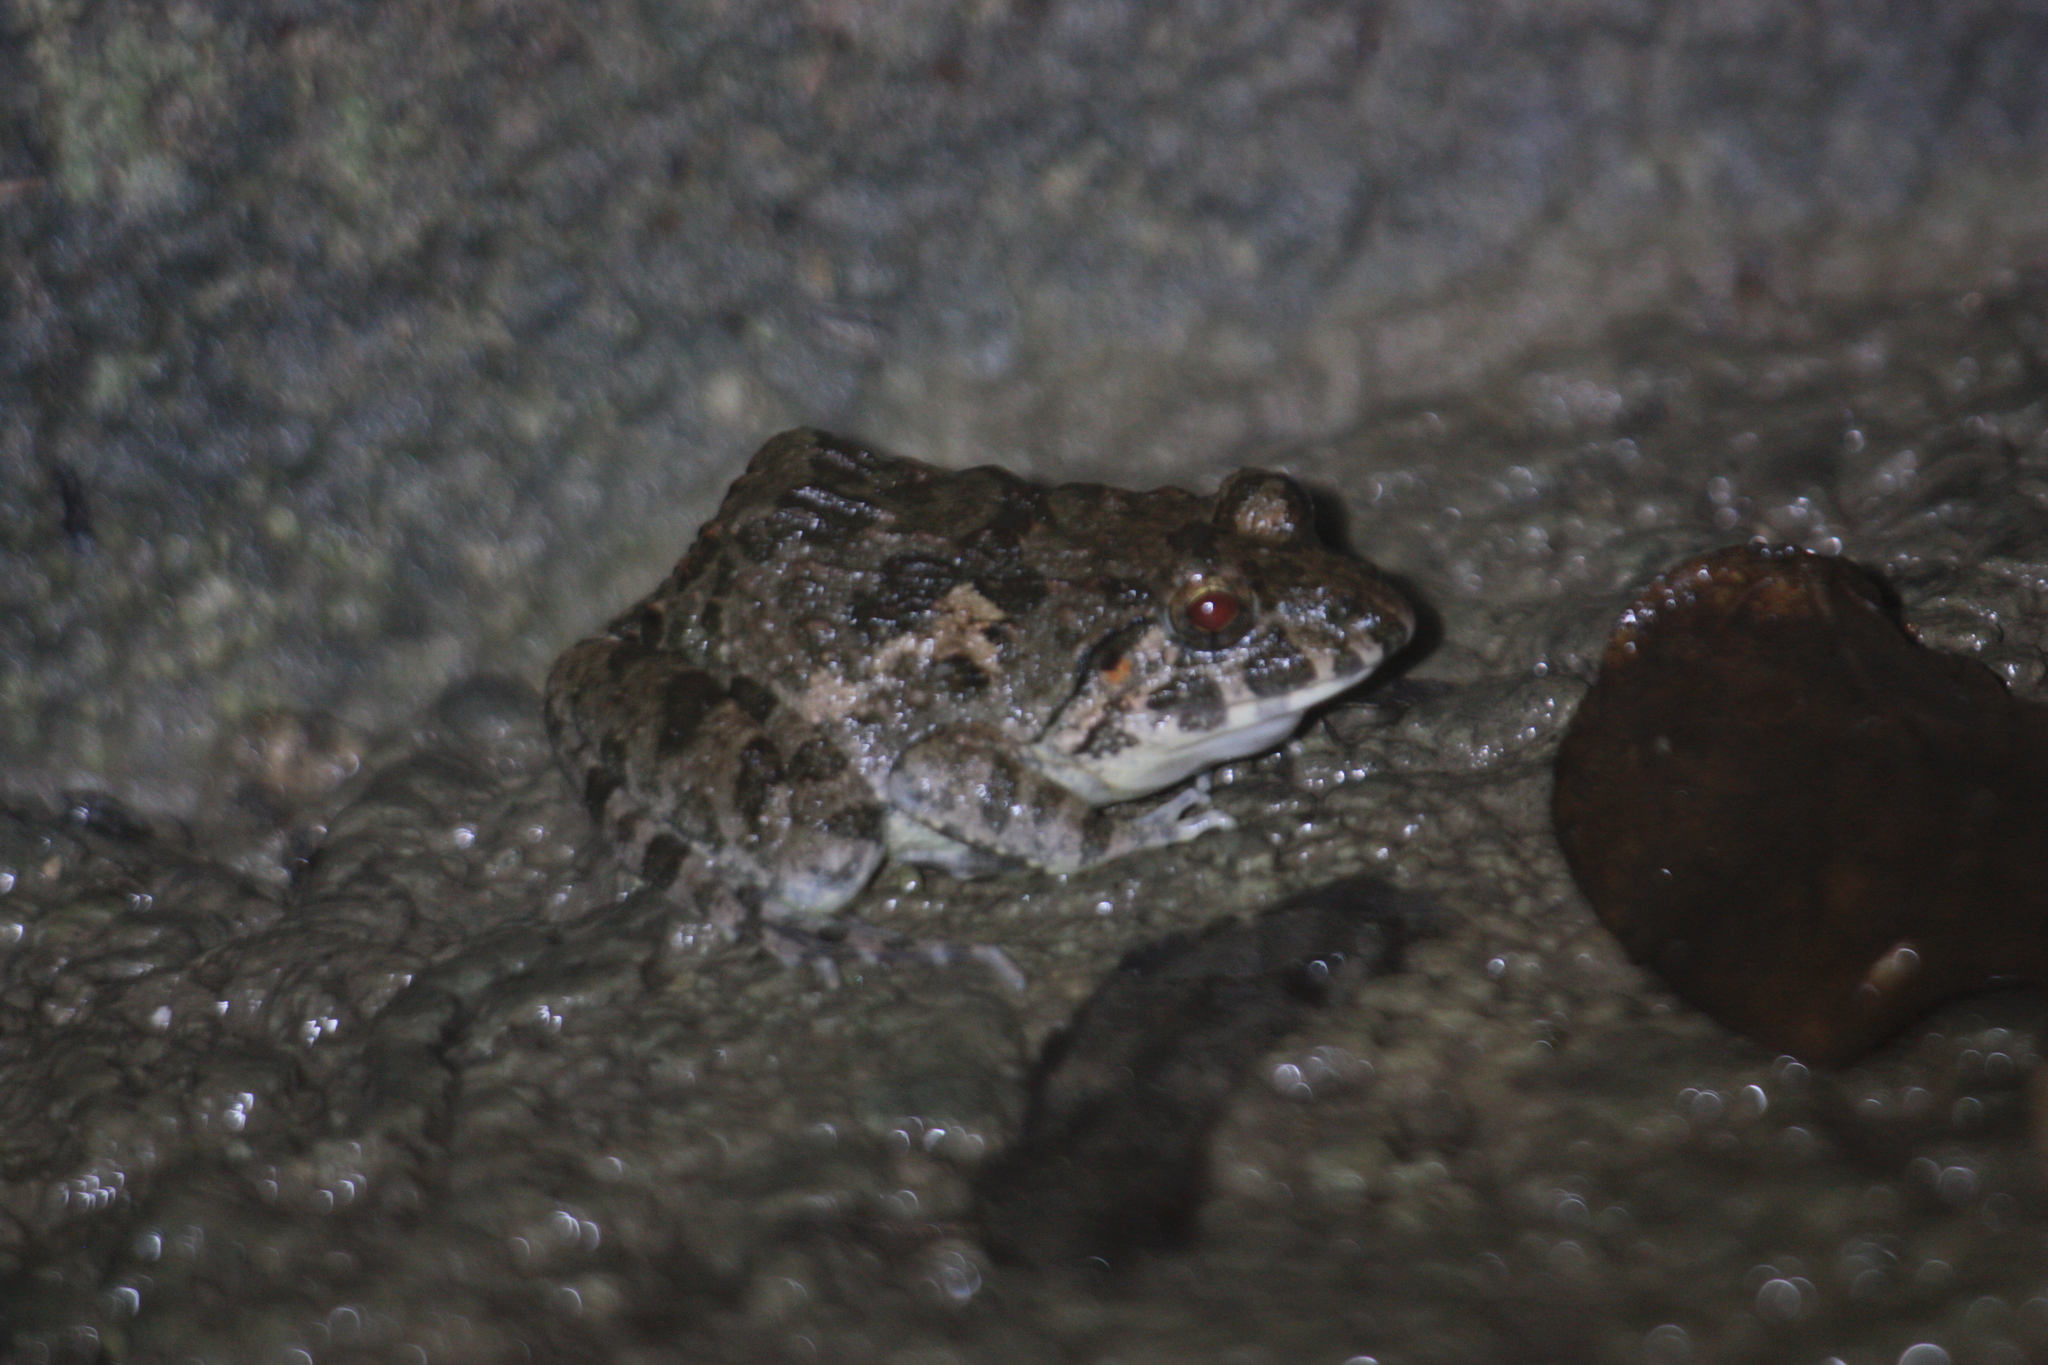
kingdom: Animalia
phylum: Chordata
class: Amphibia
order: Anura
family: Dicroglossidae
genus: Fejervarya
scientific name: Fejervarya limnocharis
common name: Asian grass frog/common pond frog/field frog/grass frog/indian rice frog
